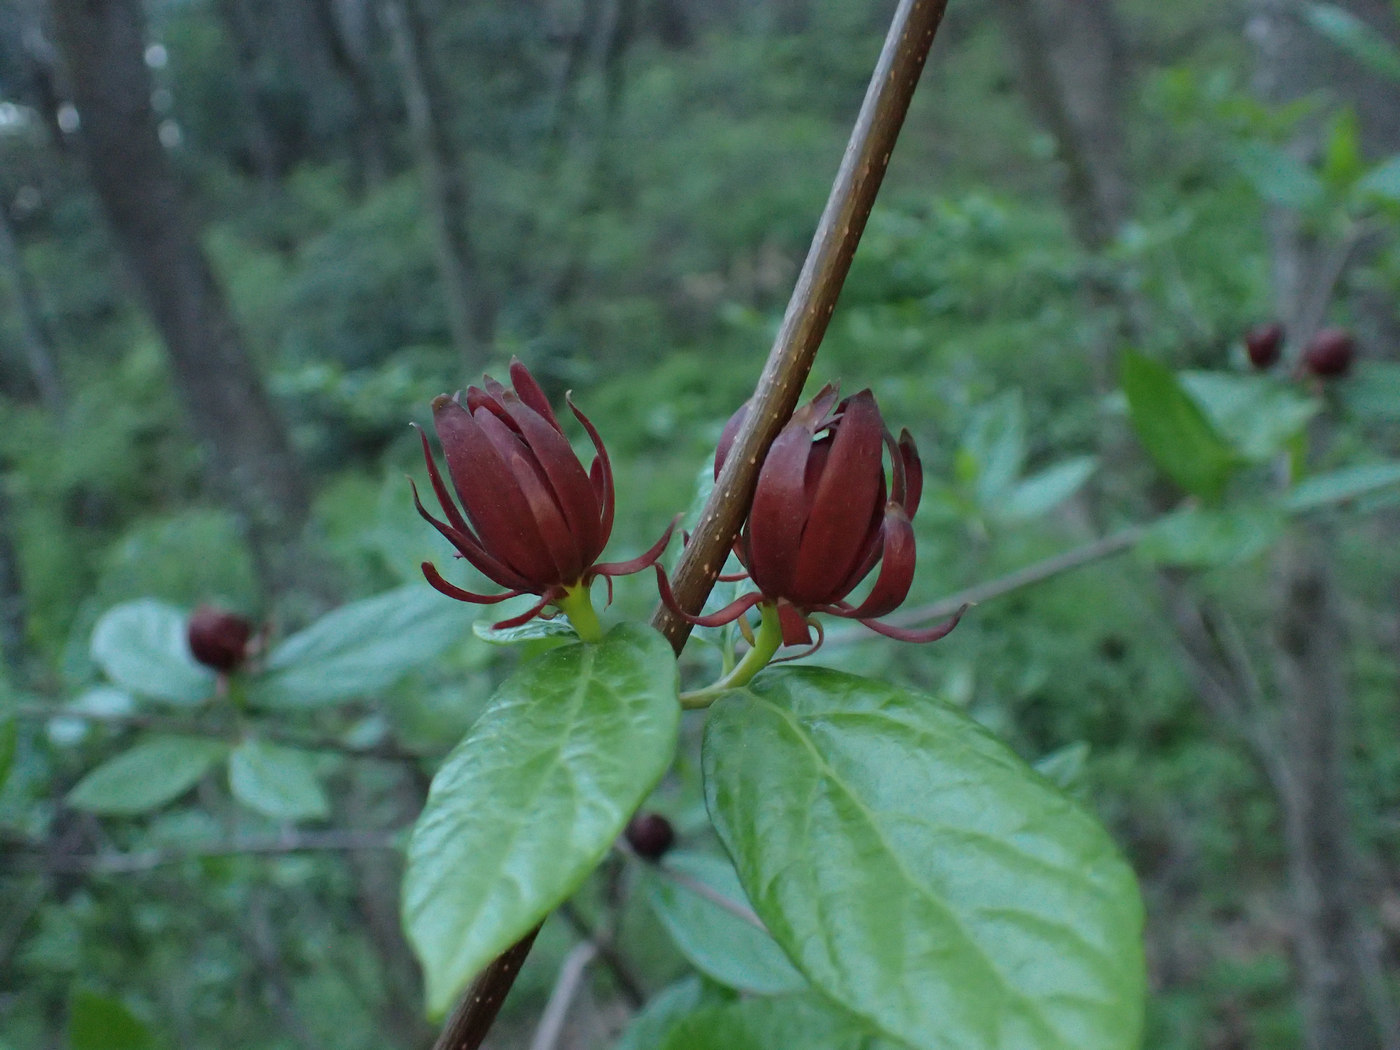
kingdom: Plantae
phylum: Tracheophyta
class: Magnoliopsida
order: Laurales
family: Calycanthaceae
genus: Calycanthus
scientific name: Calycanthus floridus
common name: Carolina-allspice
